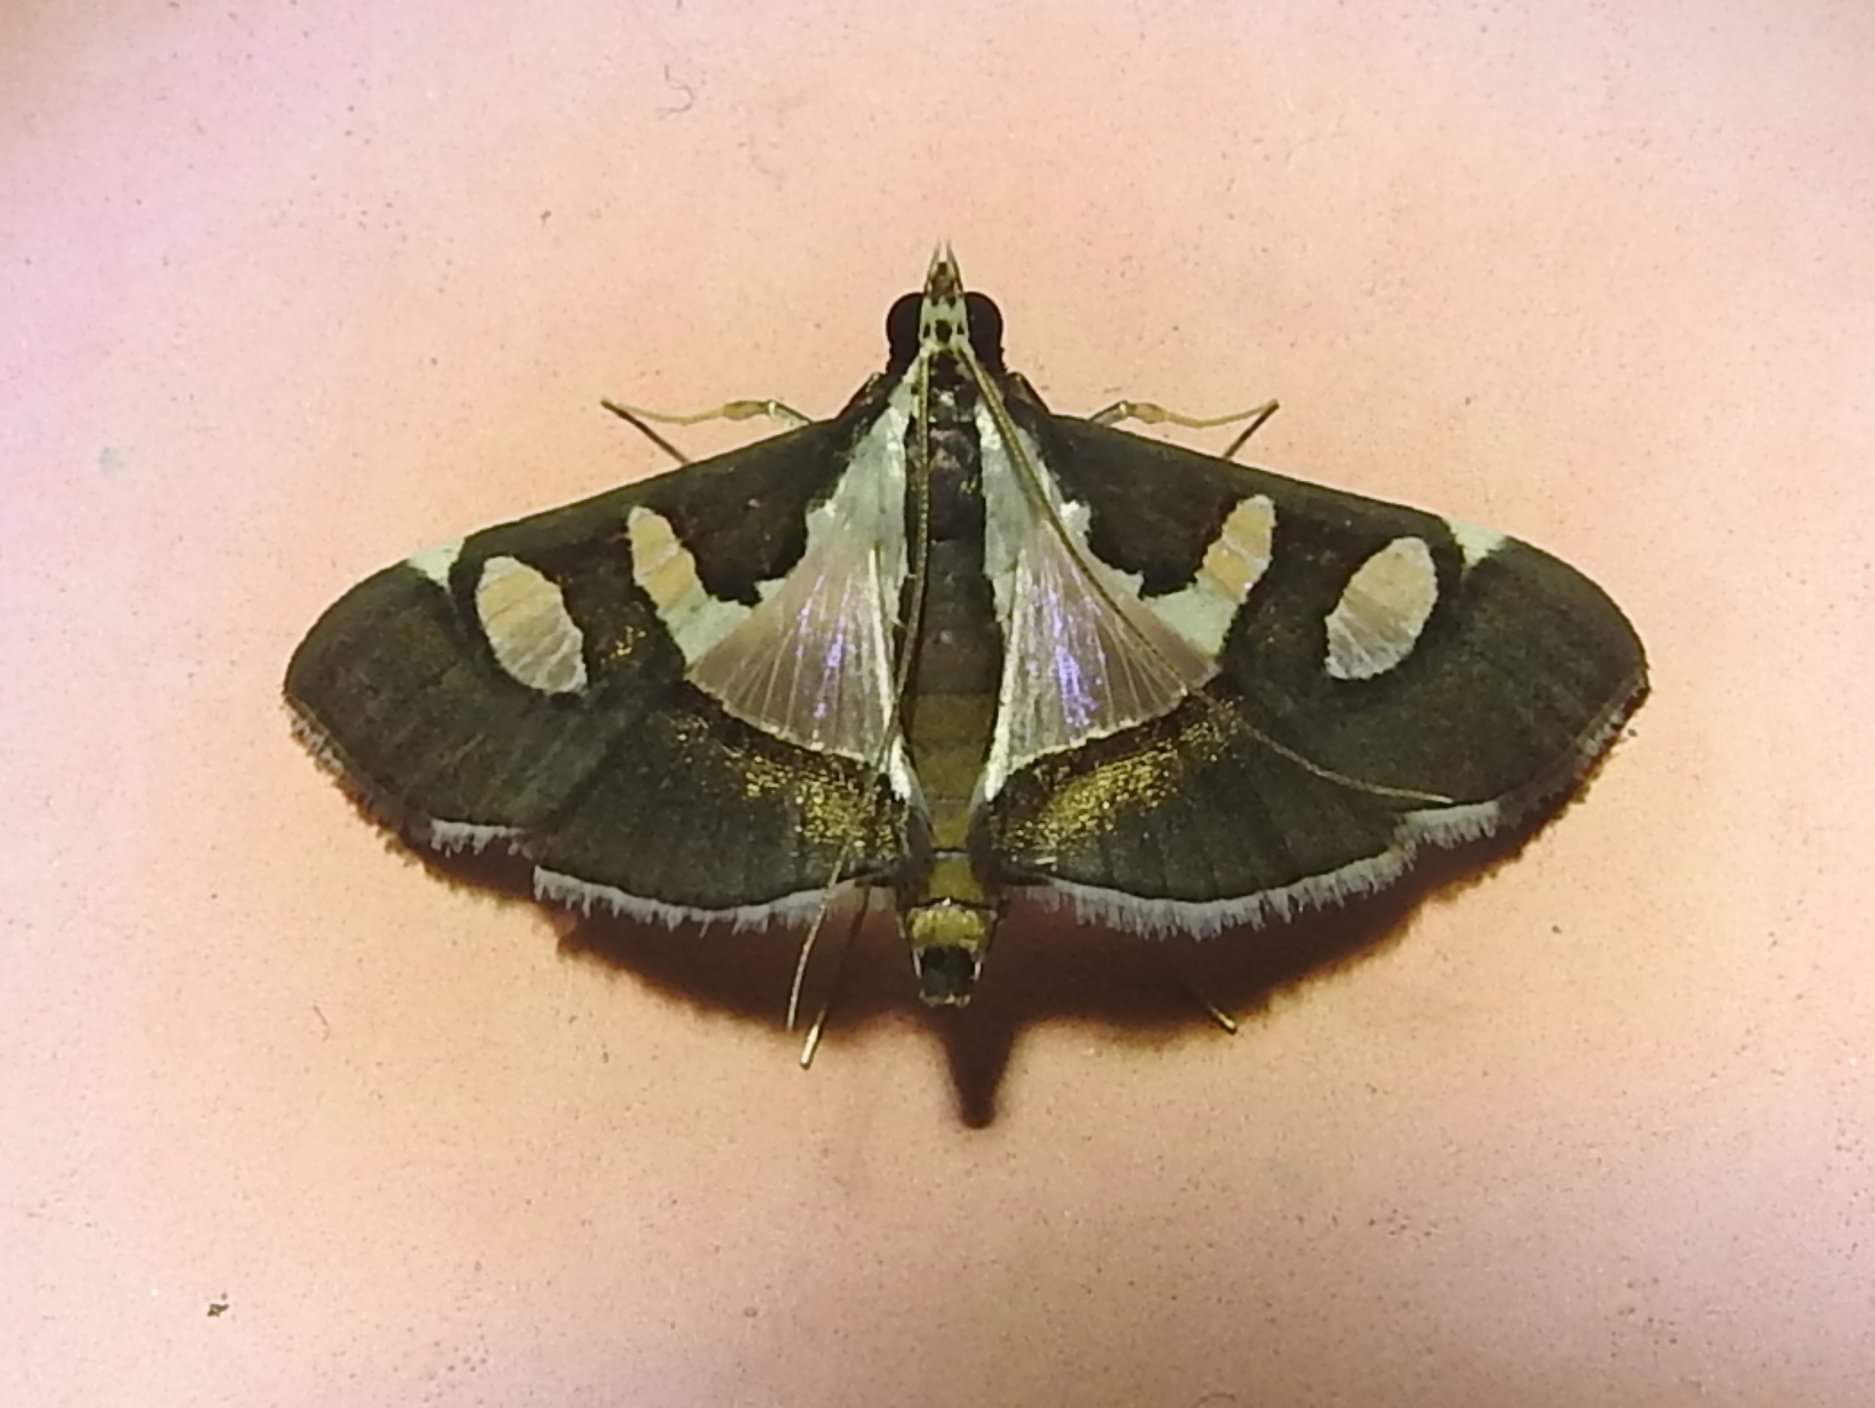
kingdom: Animalia
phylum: Arthropoda
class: Insecta
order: Lepidoptera
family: Crambidae
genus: Glyphodes
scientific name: Glyphodes bicolor
